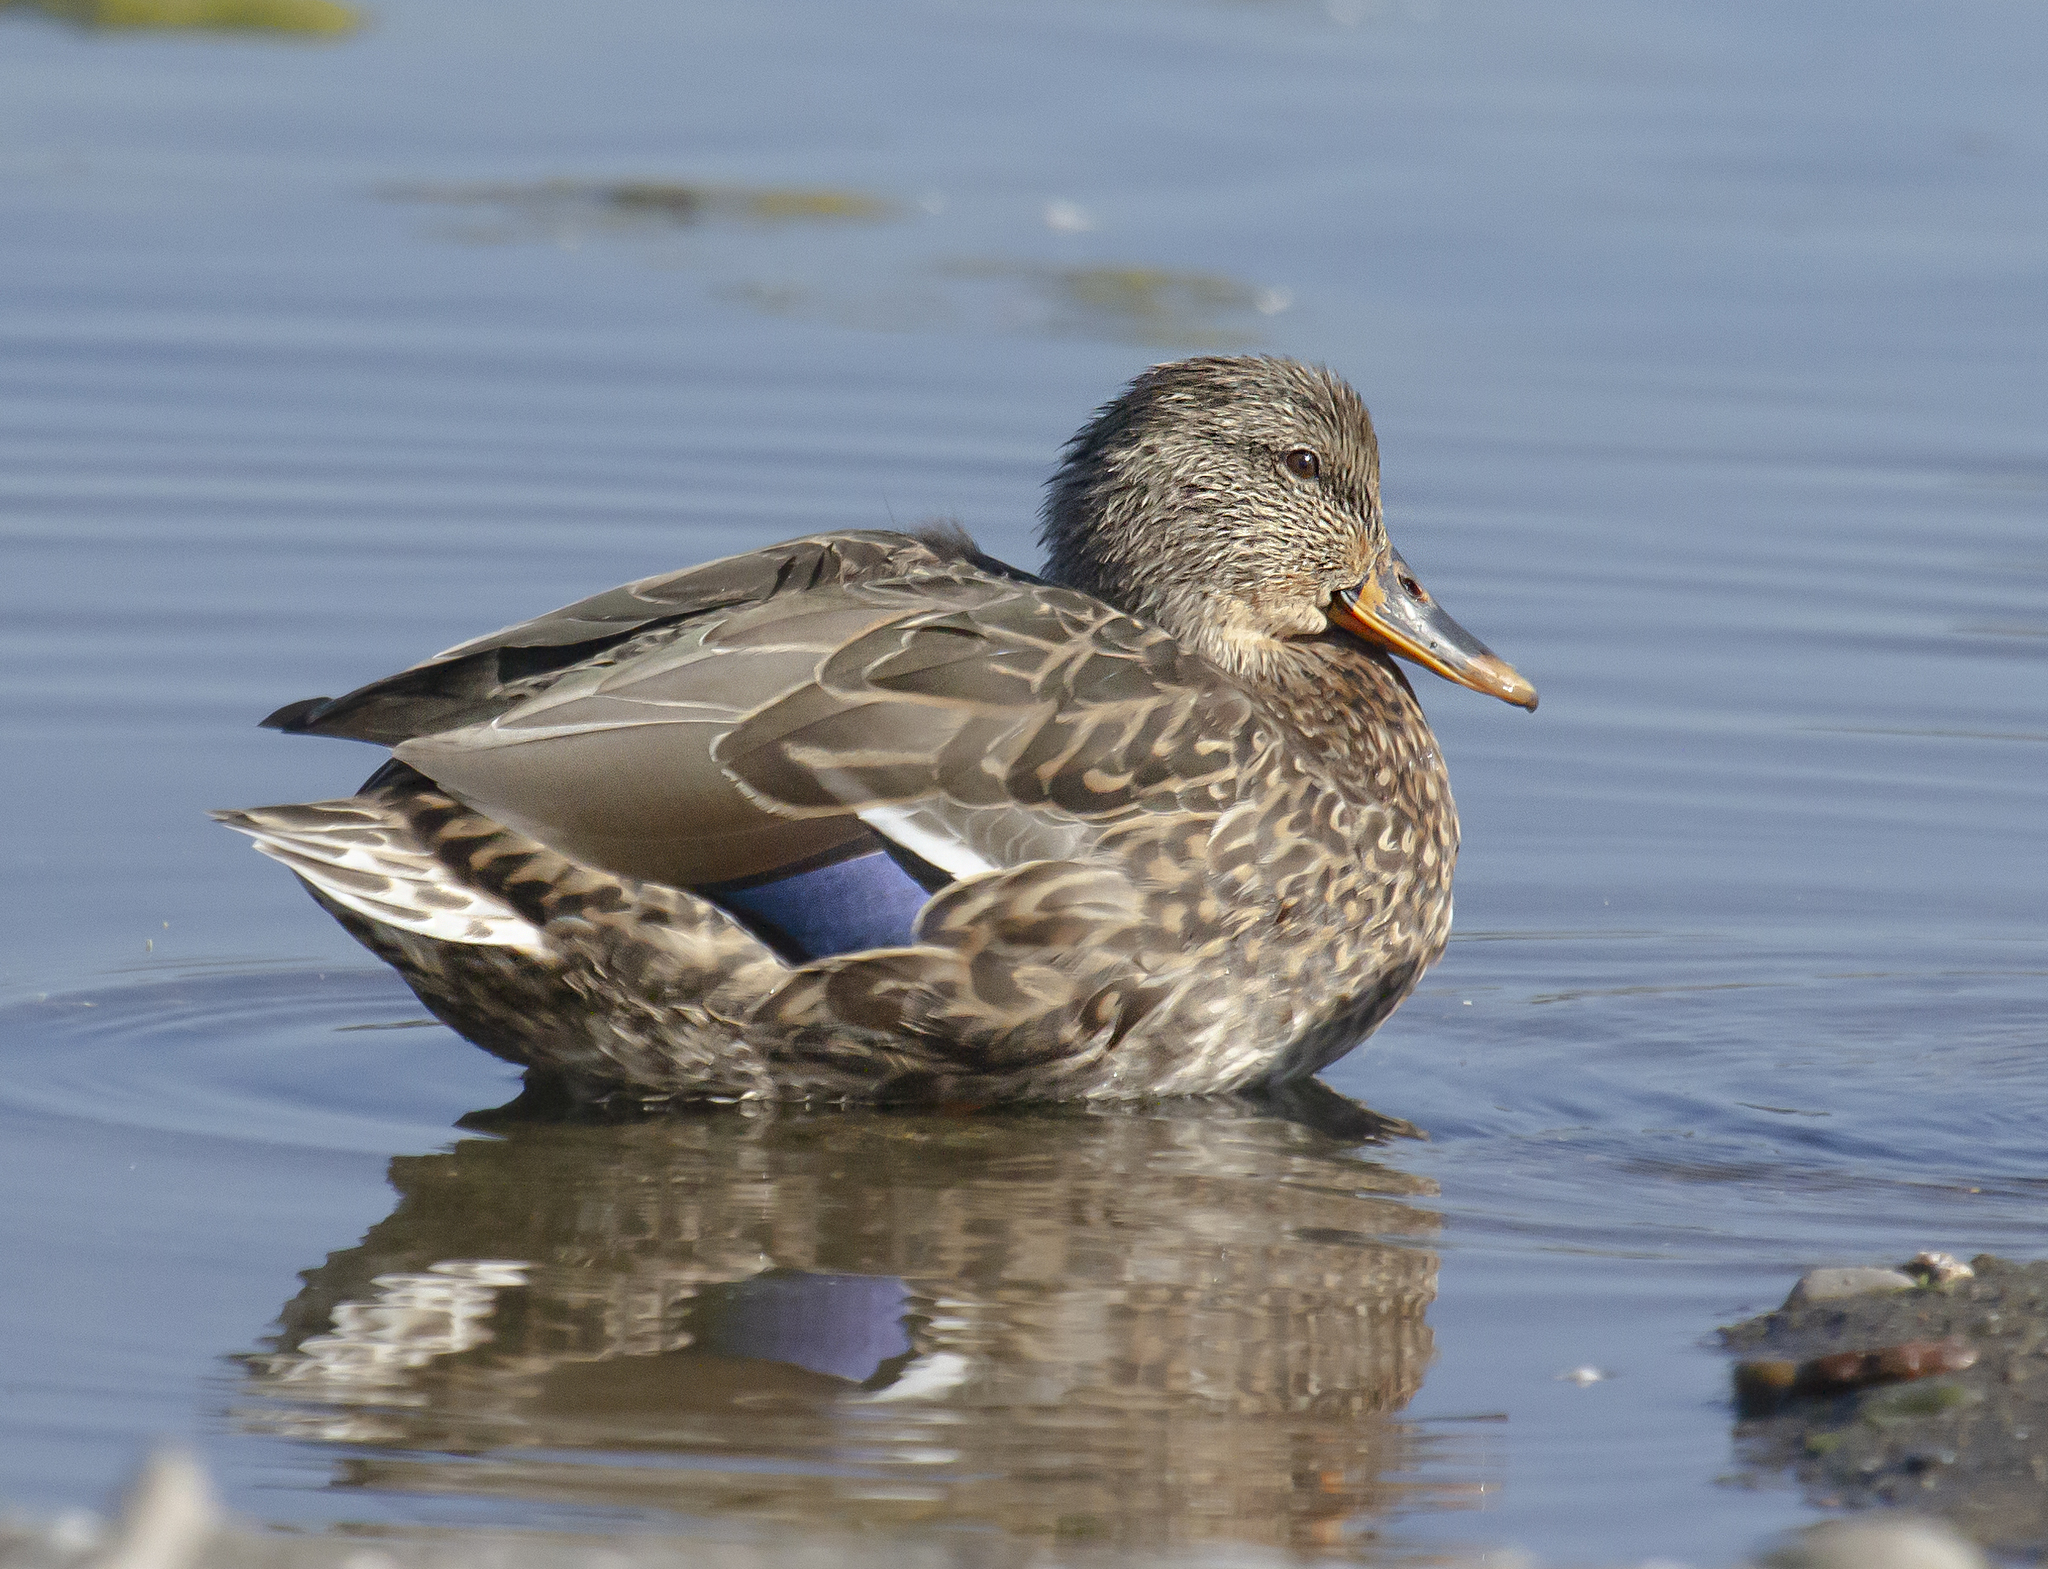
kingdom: Animalia
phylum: Chordata
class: Aves
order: Anseriformes
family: Anatidae
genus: Anas
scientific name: Anas platyrhynchos
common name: Mallard
